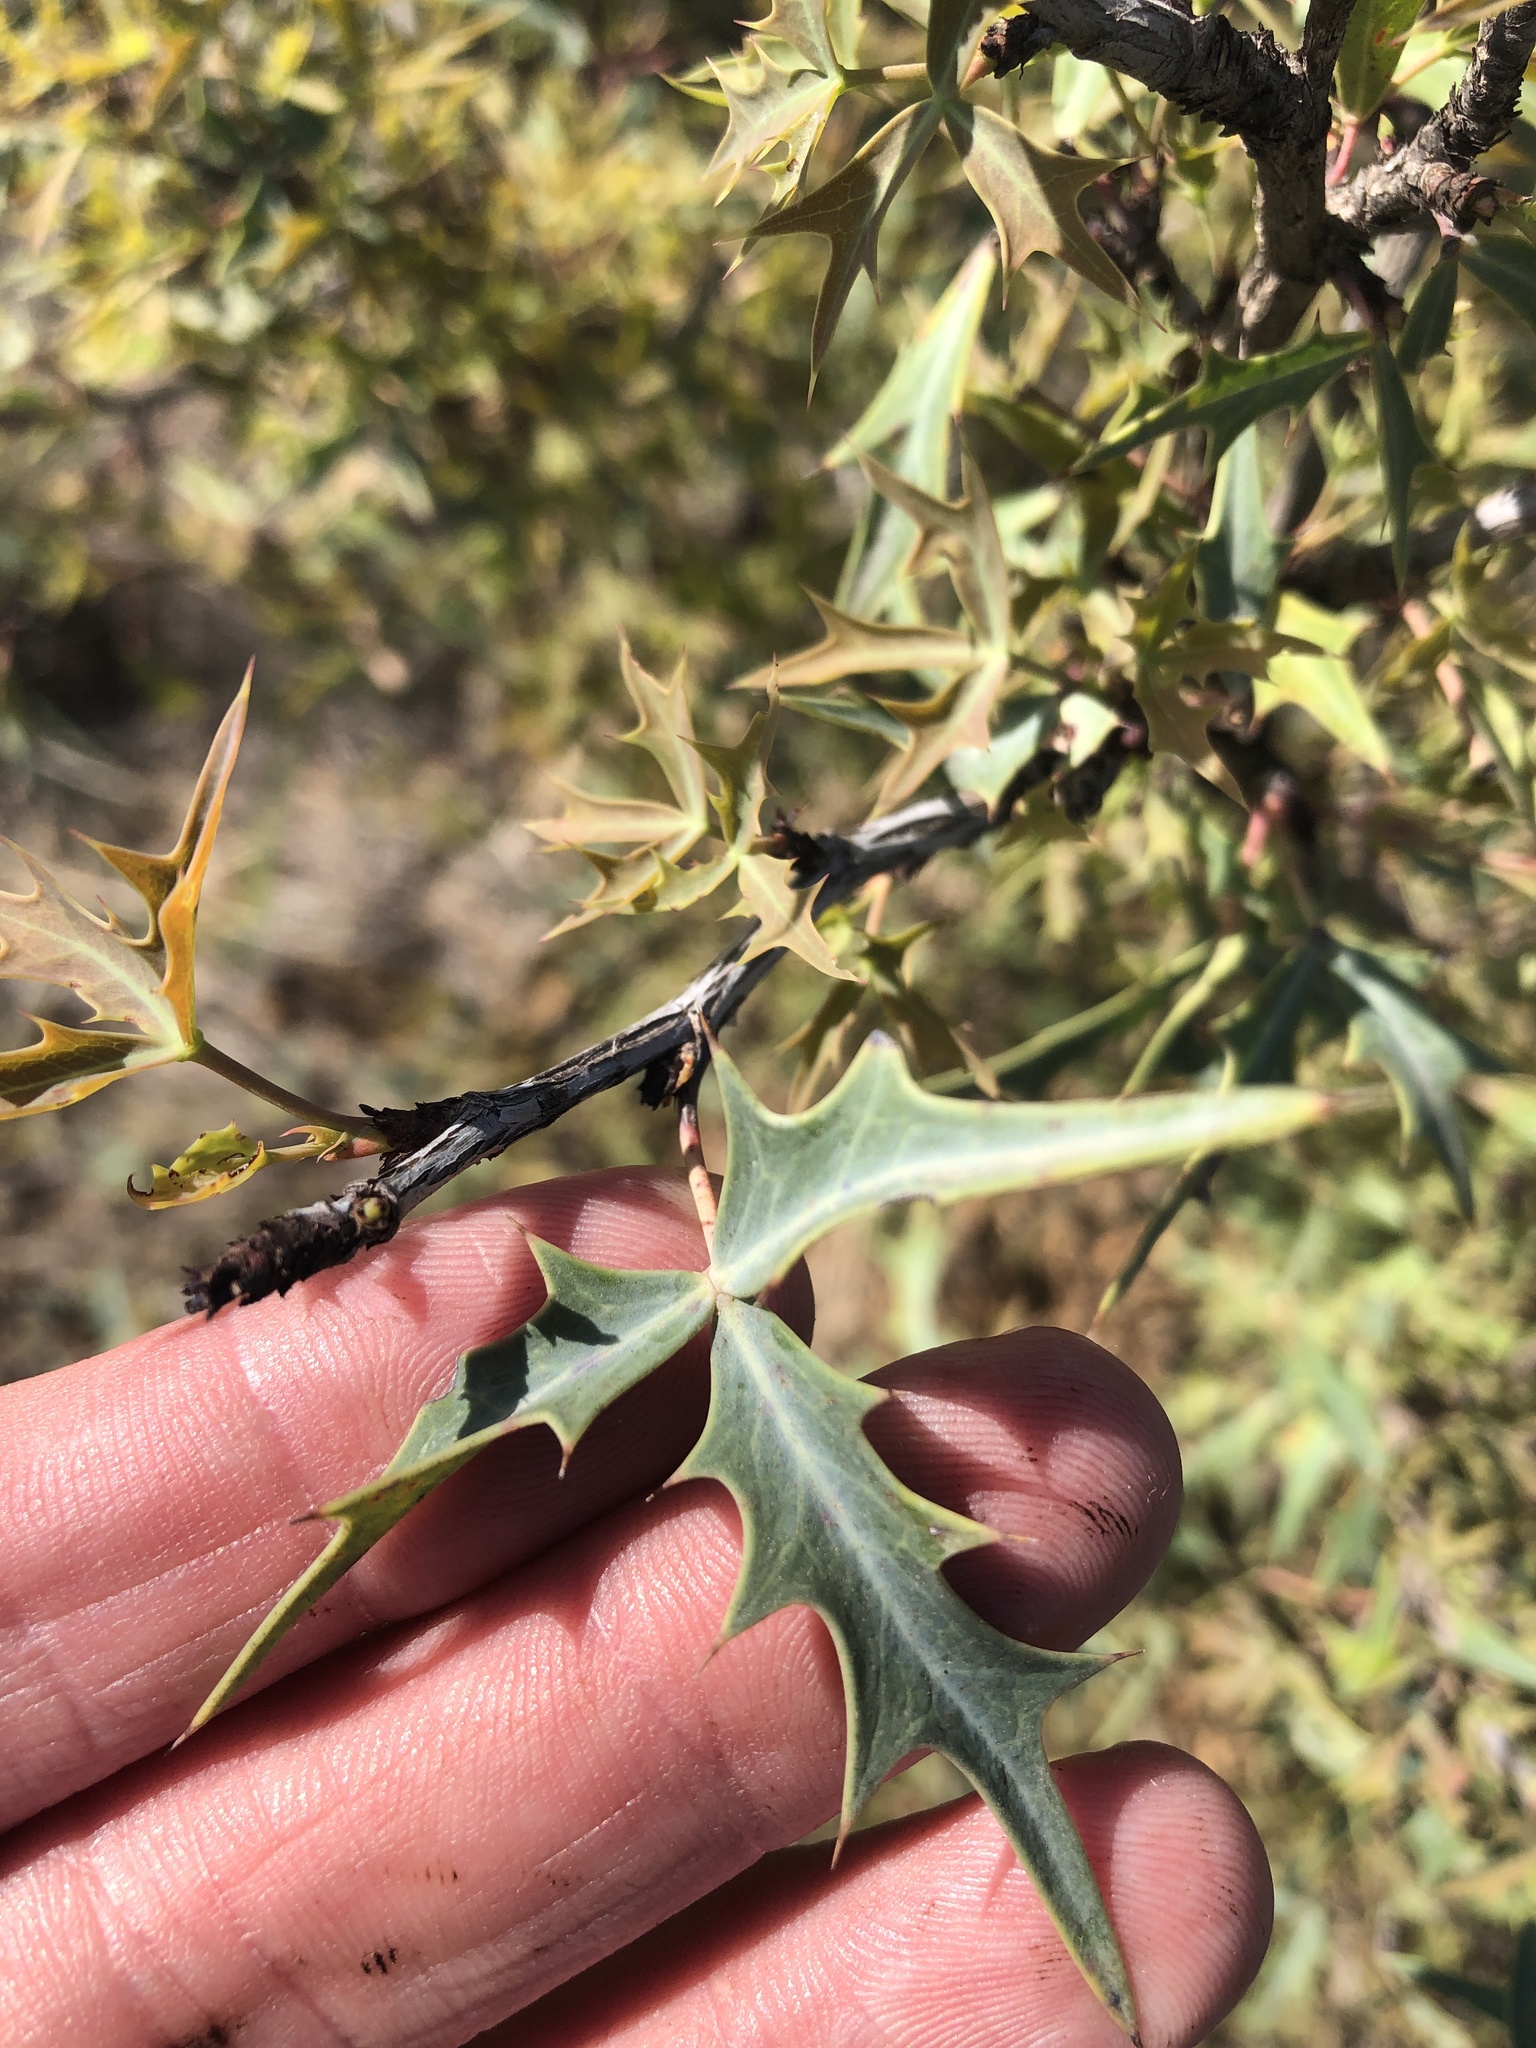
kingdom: Plantae
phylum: Tracheophyta
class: Magnoliopsida
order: Ranunculales
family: Berberidaceae
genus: Alloberberis
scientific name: Alloberberis trifoliolata
